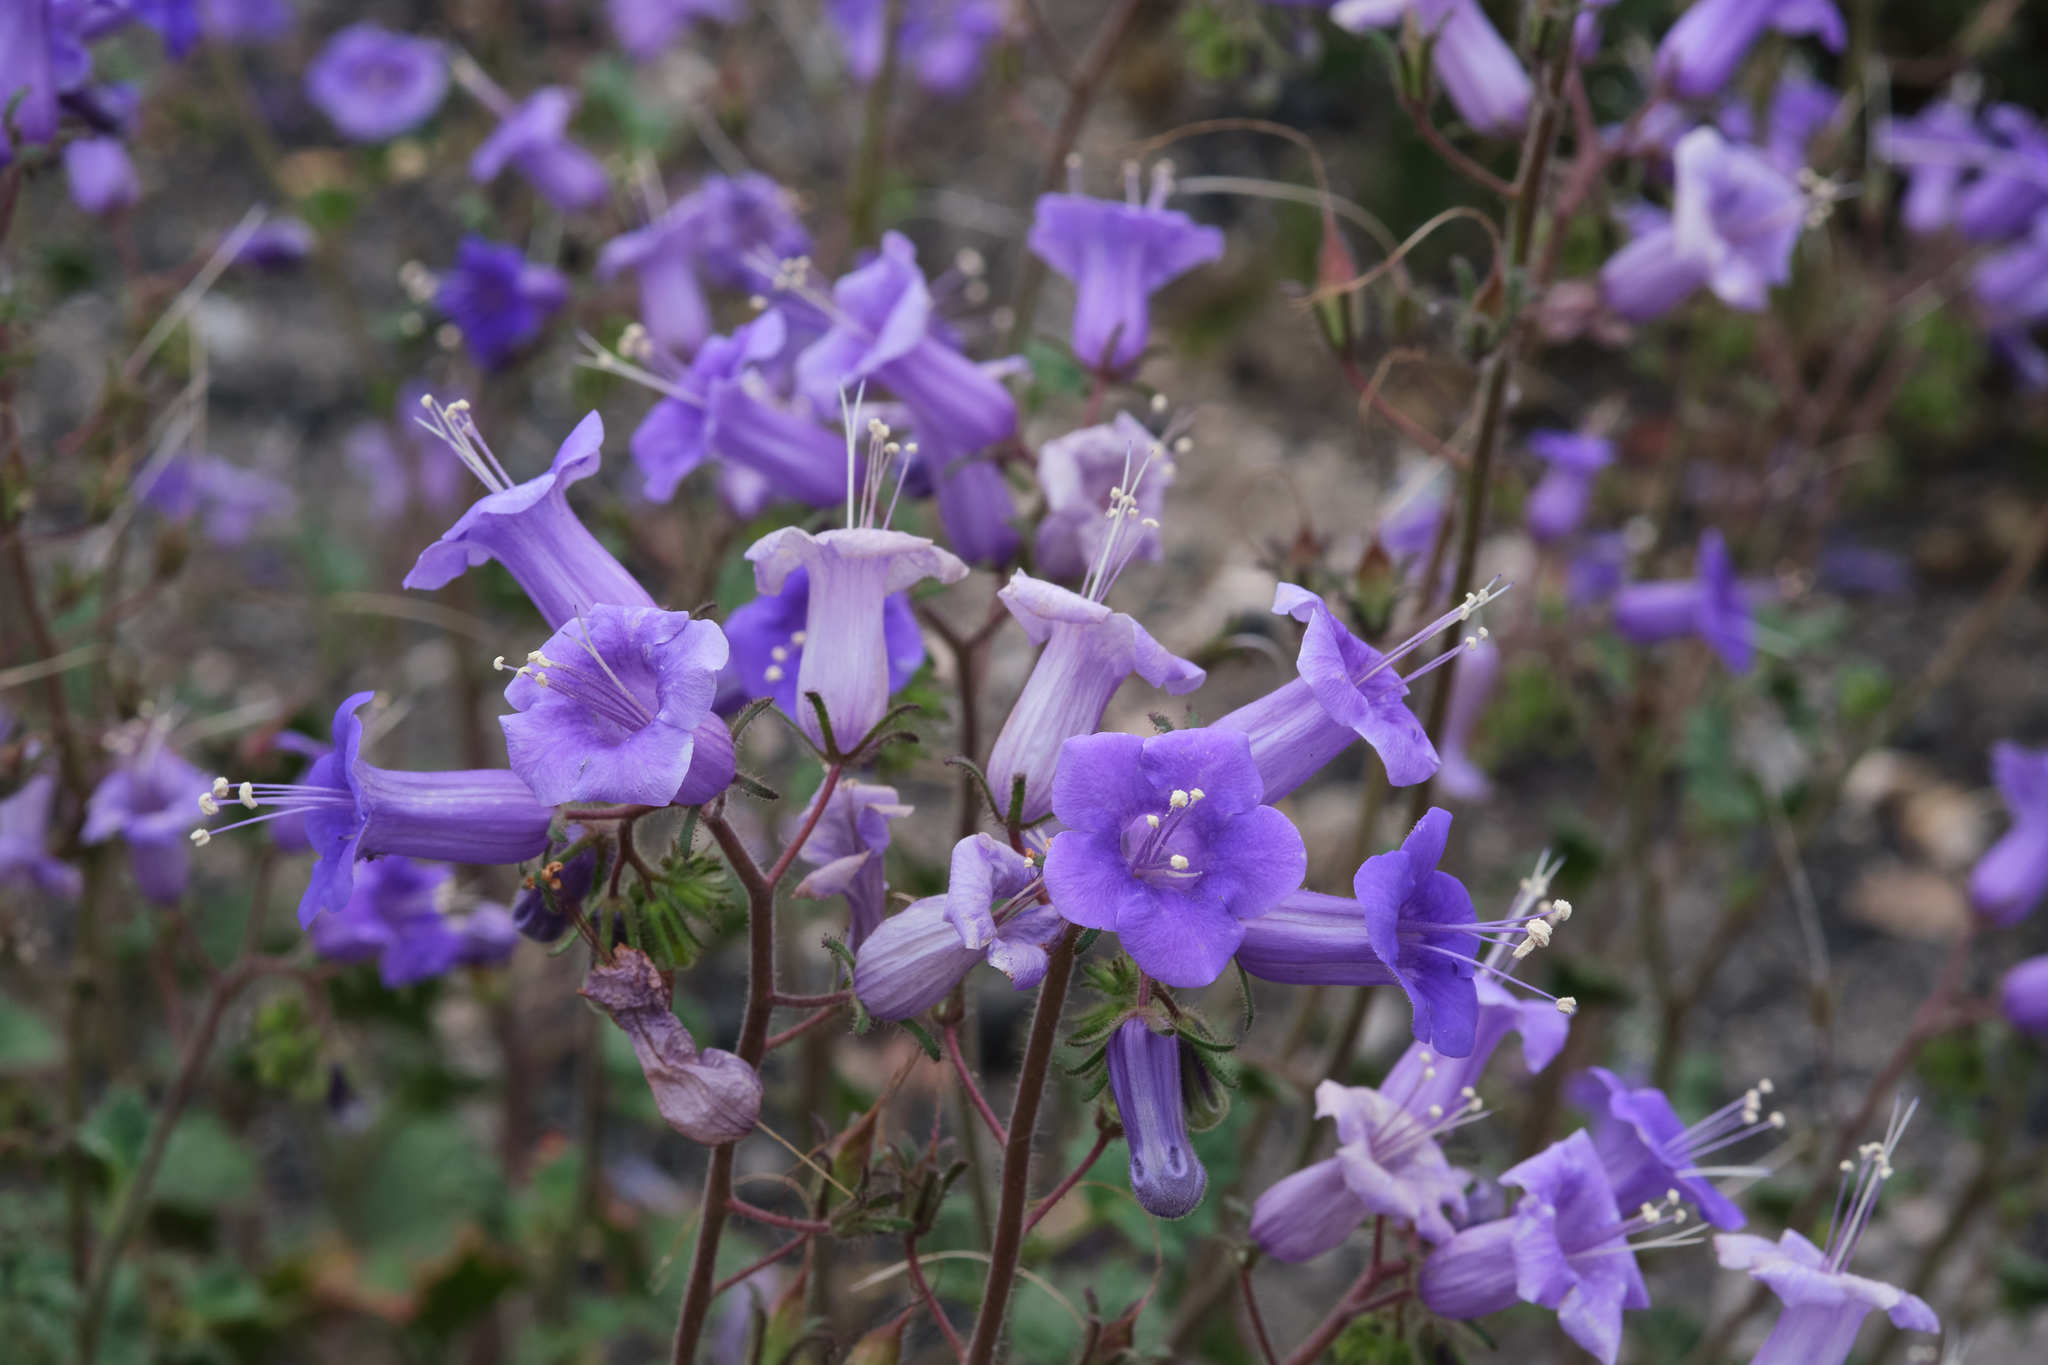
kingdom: Plantae
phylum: Tracheophyta
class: Magnoliopsida
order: Boraginales
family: Hydrophyllaceae
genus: Phacelia
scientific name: Phacelia minor
